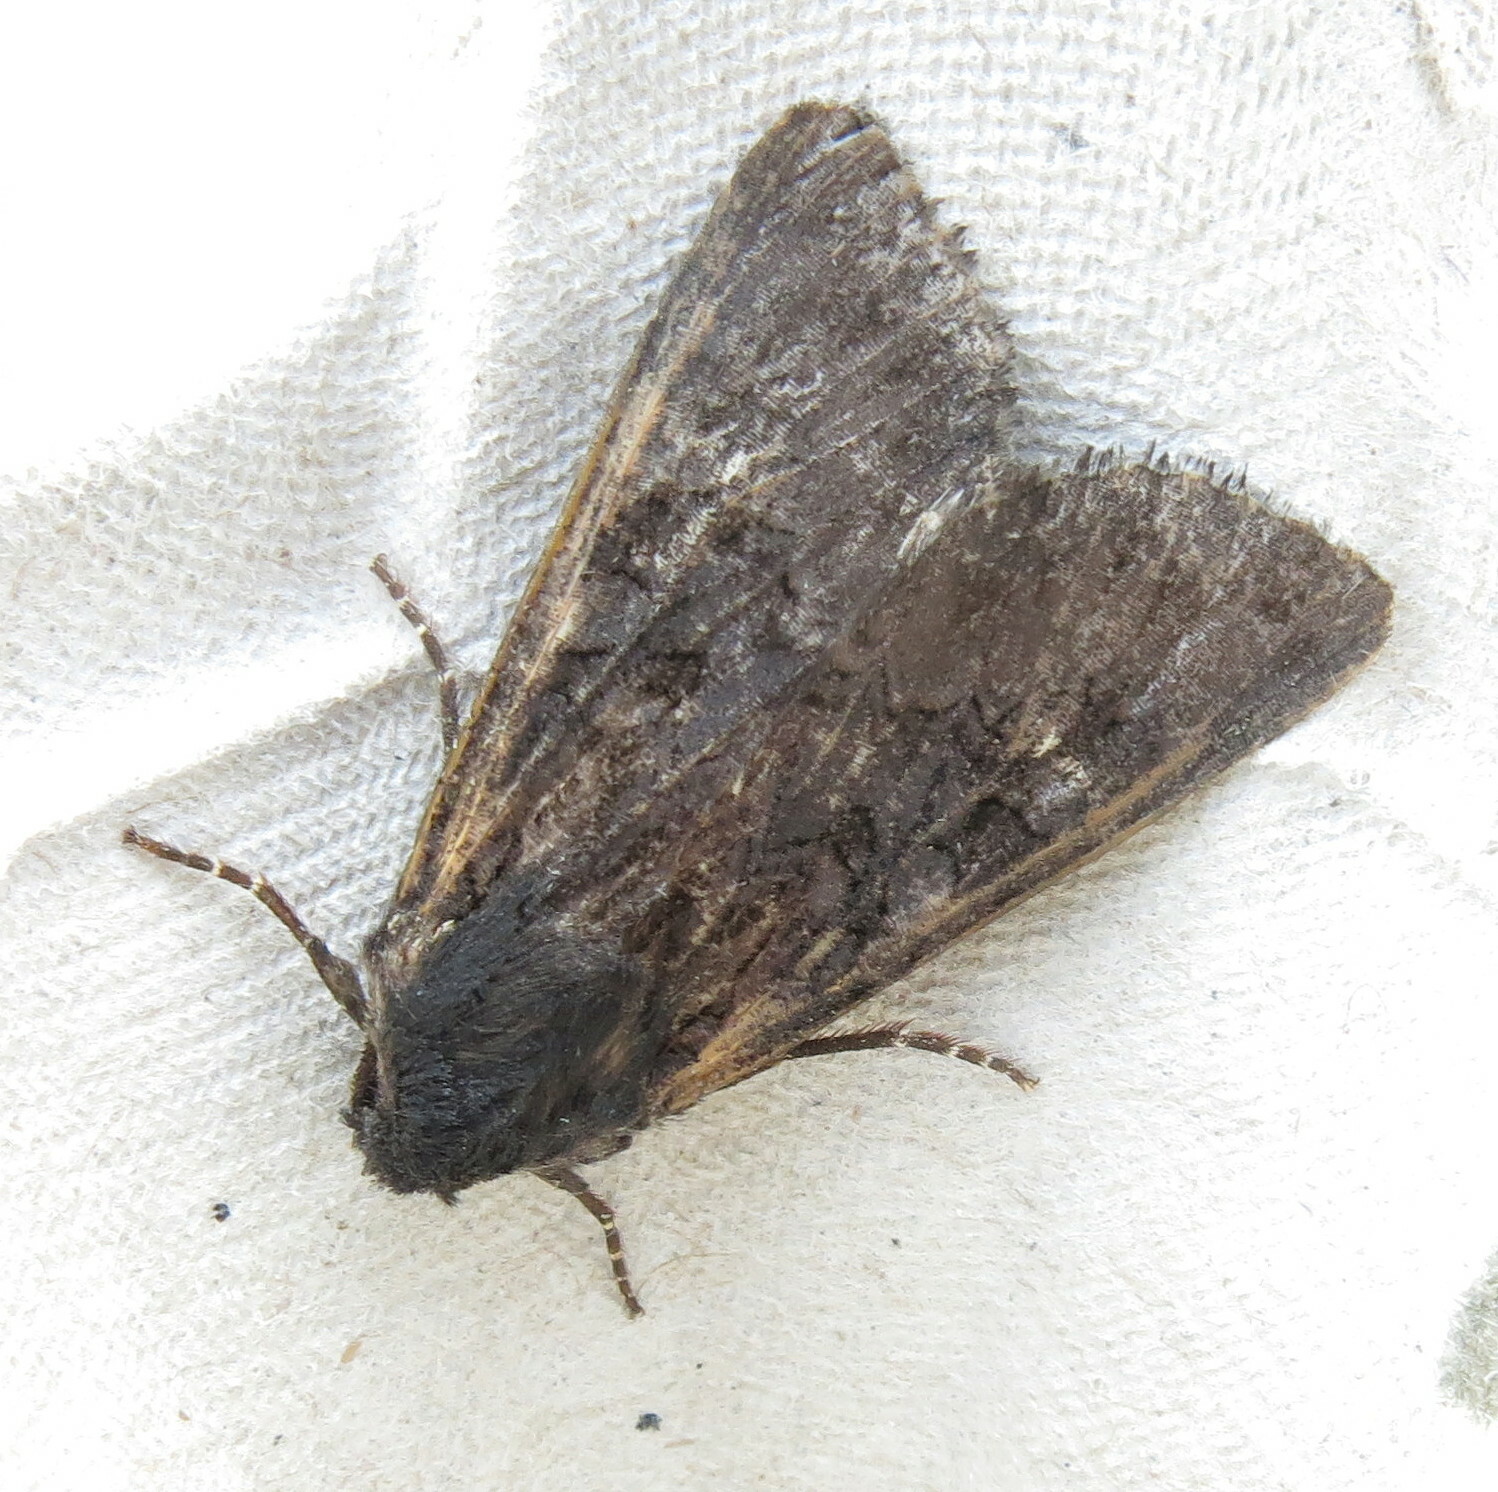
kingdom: Animalia
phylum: Arthropoda
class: Insecta
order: Lepidoptera
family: Noctuidae
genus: Aporophyla
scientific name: Aporophyla nigra
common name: Black rustic
